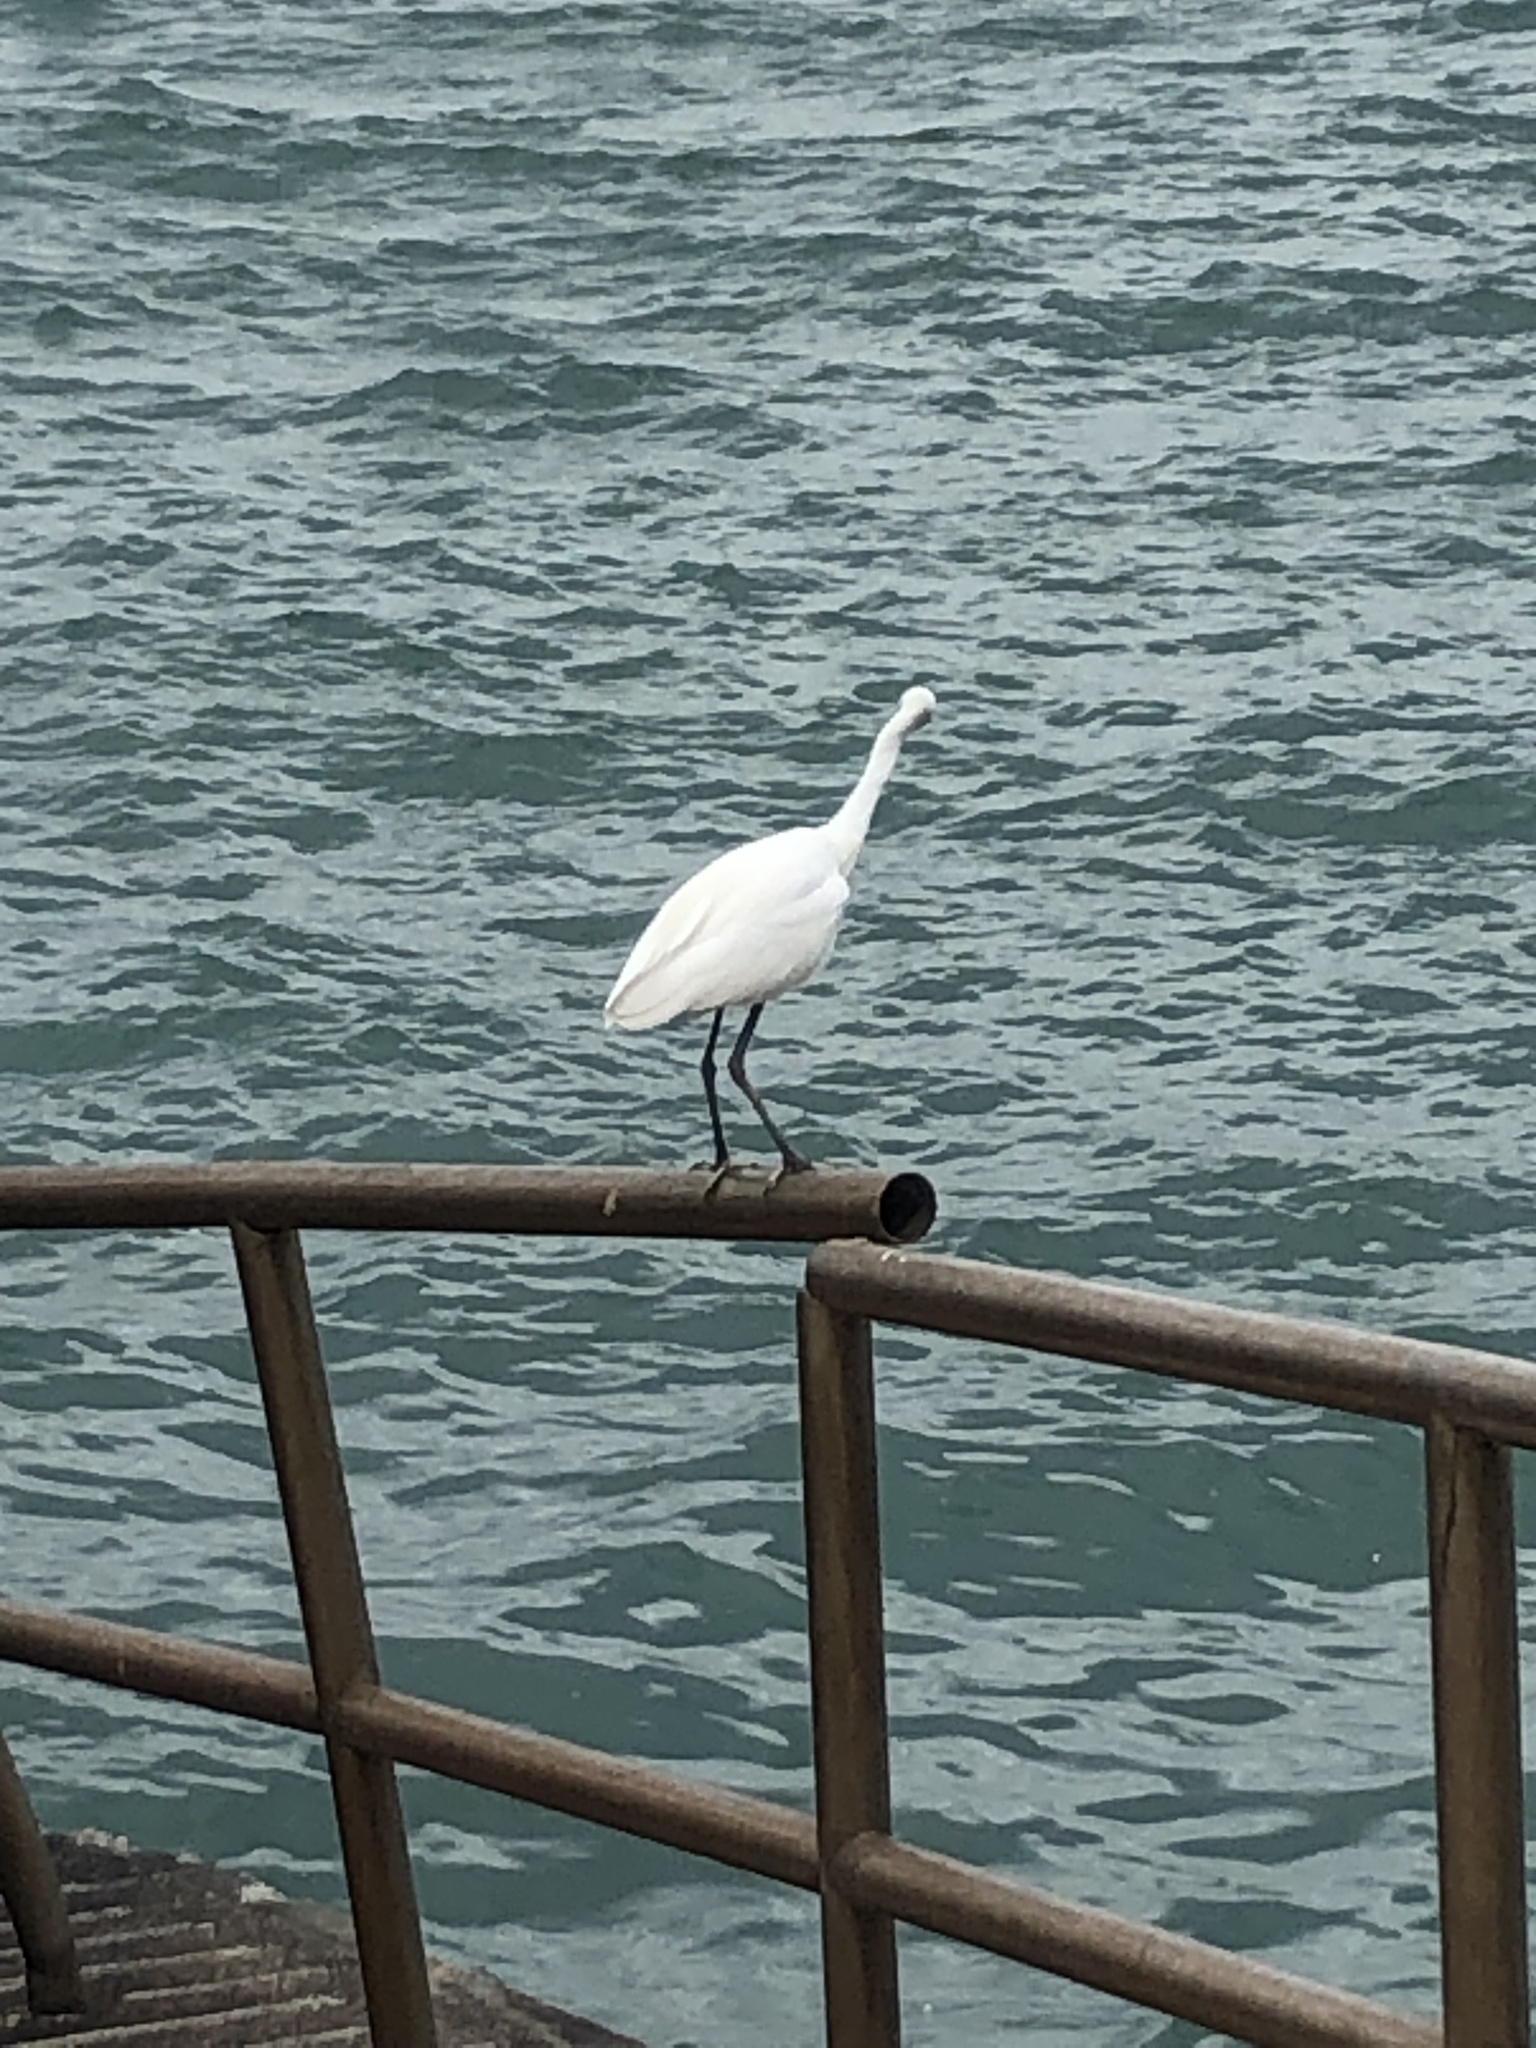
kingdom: Animalia
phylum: Chordata
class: Aves
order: Pelecaniformes
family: Ardeidae
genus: Egretta
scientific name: Egretta garzetta
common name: Little egret
